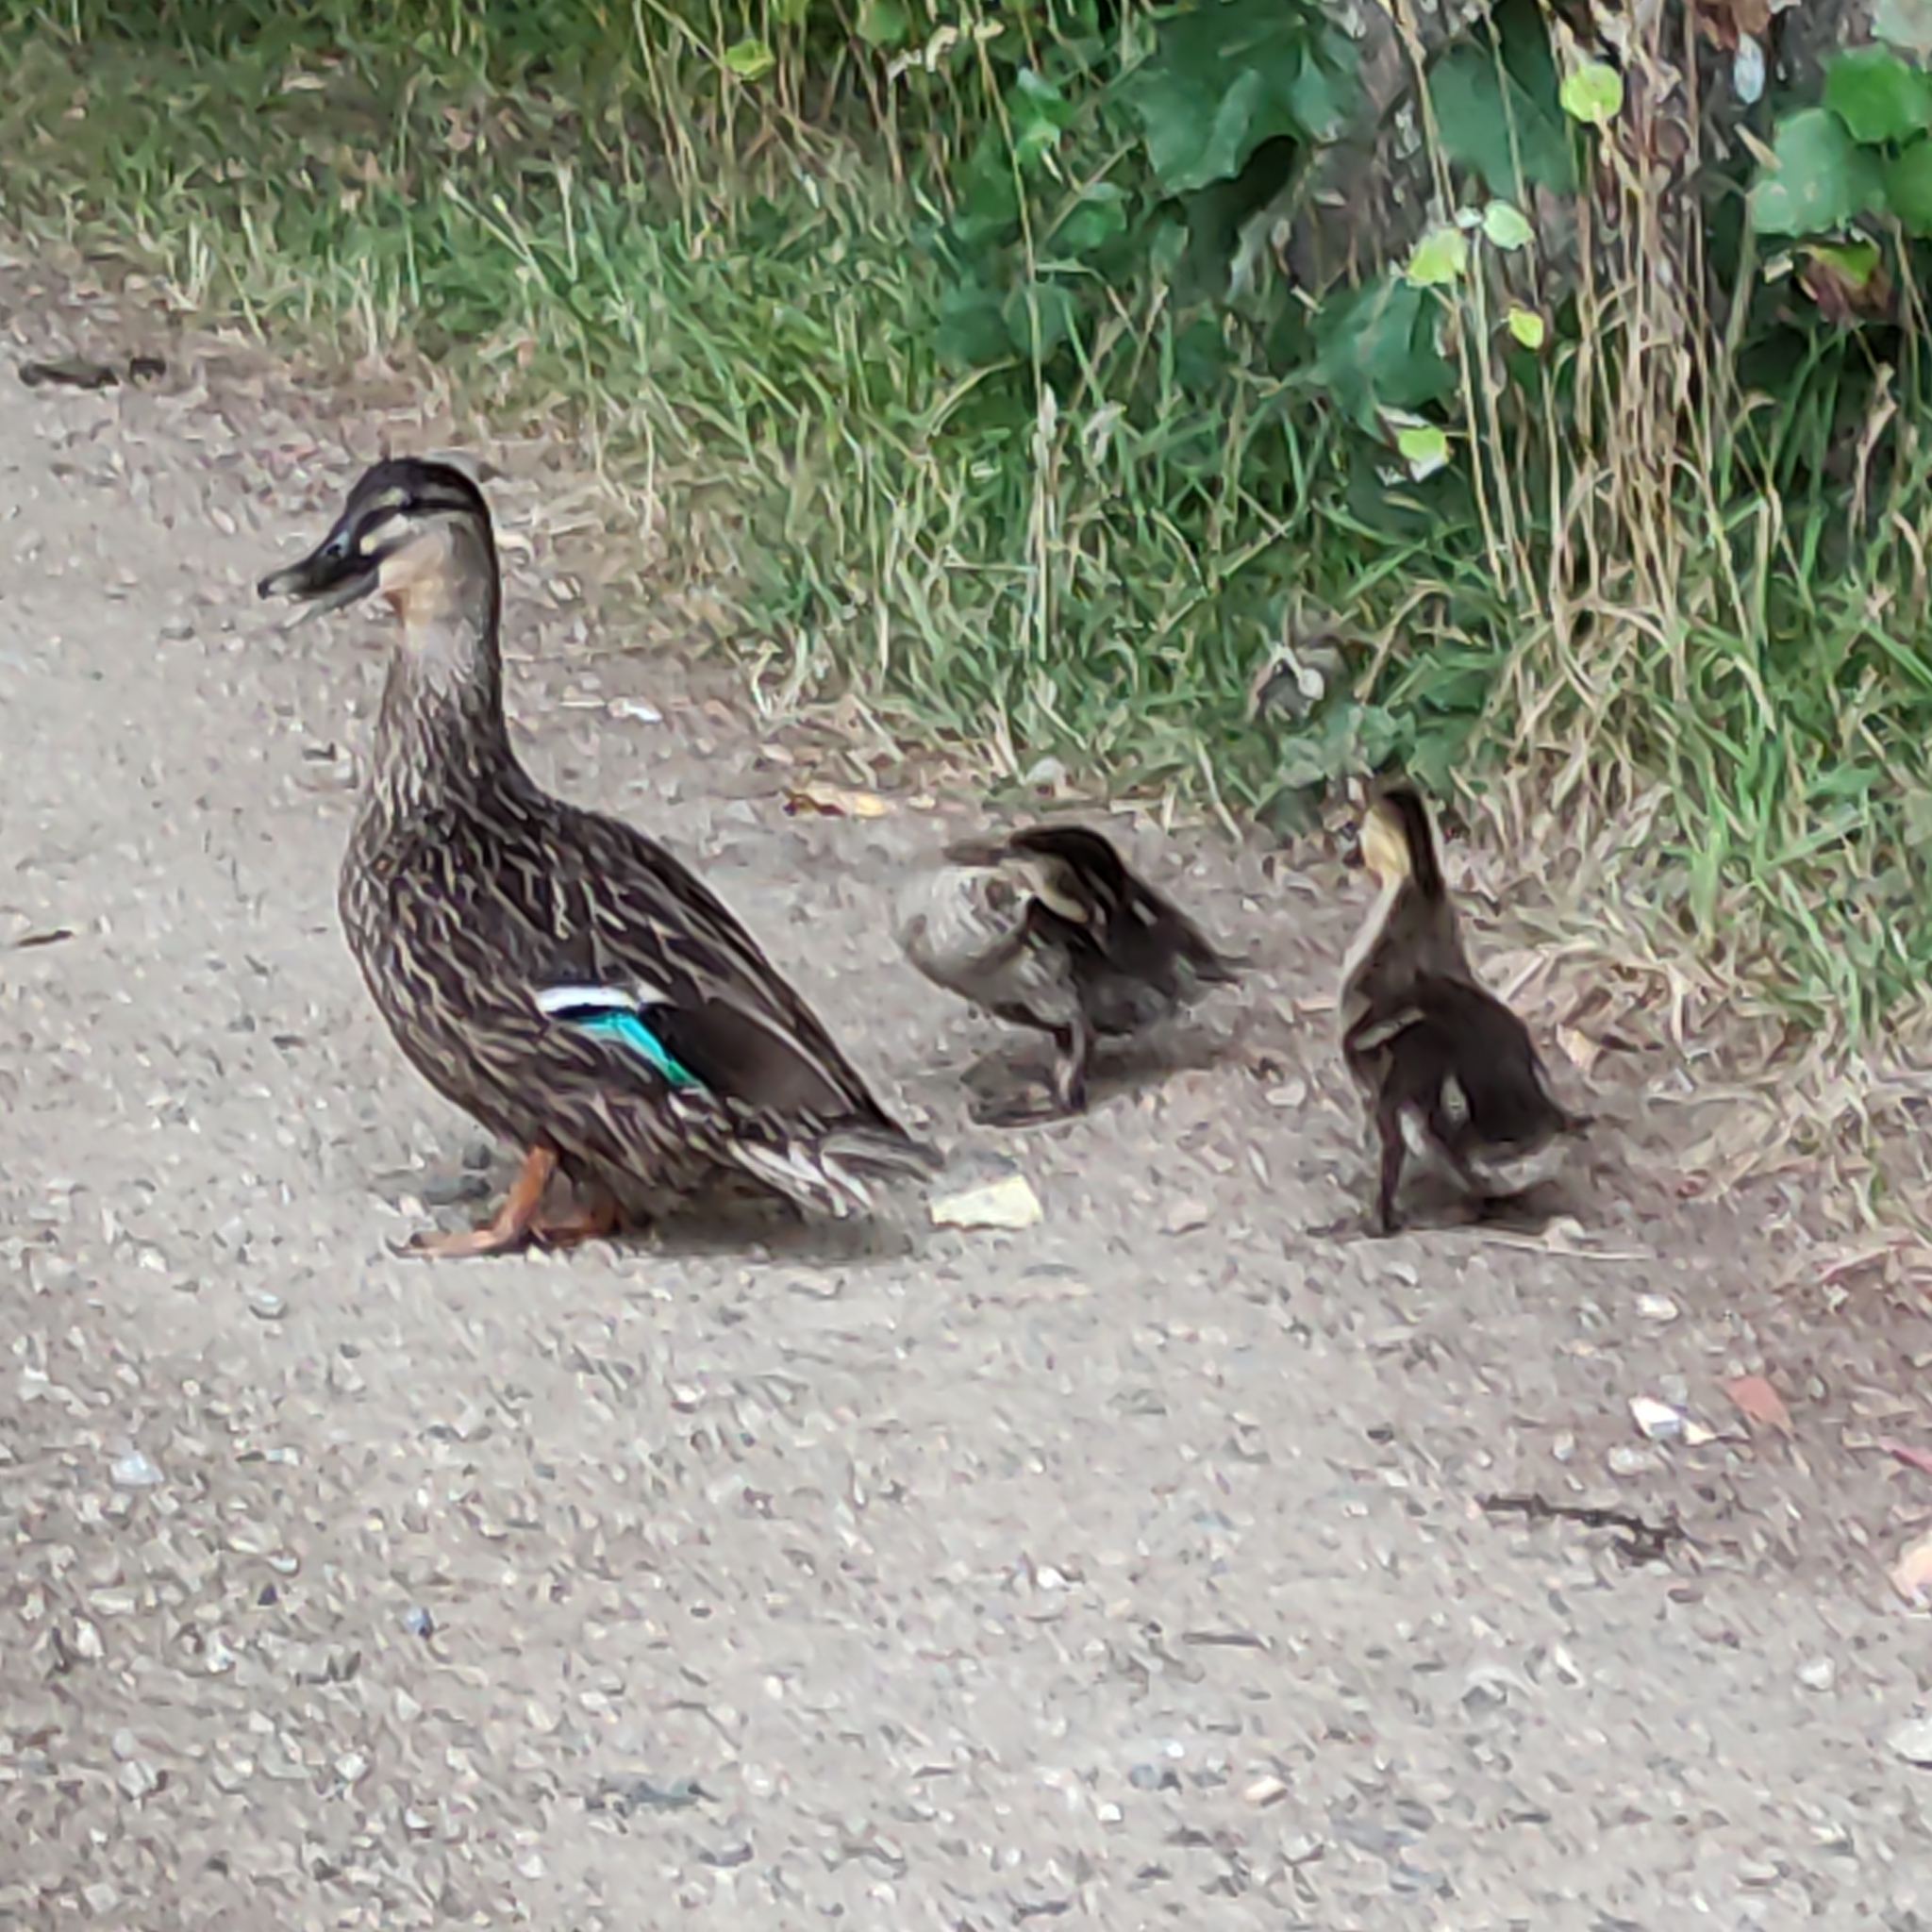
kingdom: Animalia
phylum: Chordata
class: Aves
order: Anseriformes
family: Anatidae
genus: Anas
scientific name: Anas
